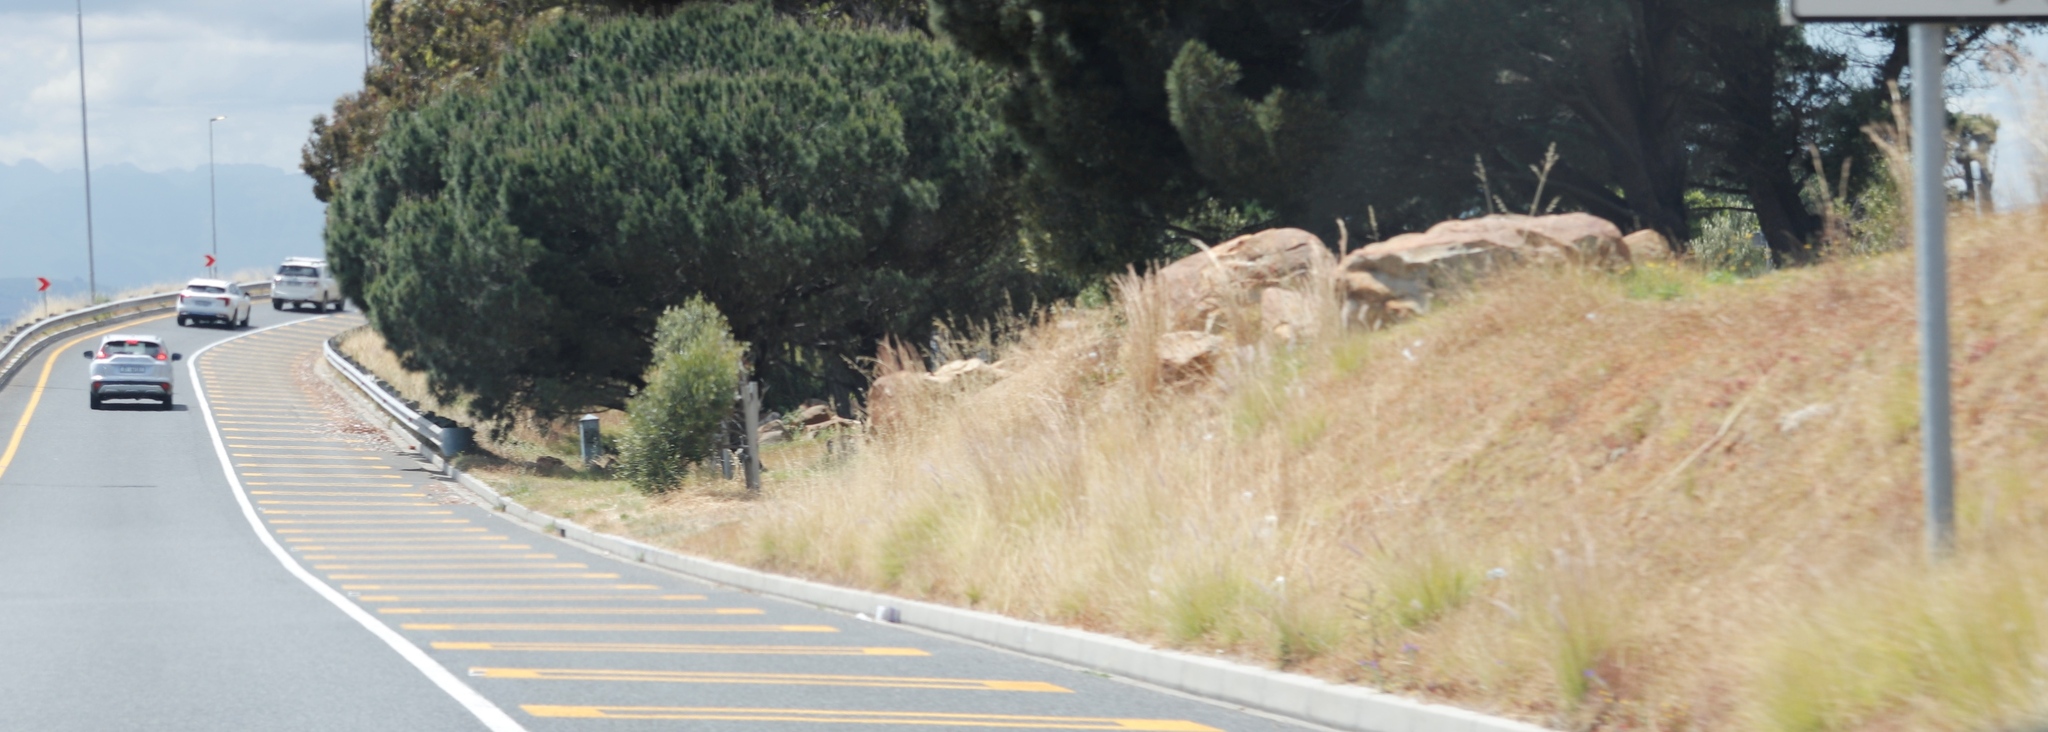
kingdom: Plantae
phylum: Tracheophyta
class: Liliopsida
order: Poales
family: Poaceae
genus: Hyparrhenia
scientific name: Hyparrhenia hirta
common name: Thatching grass
